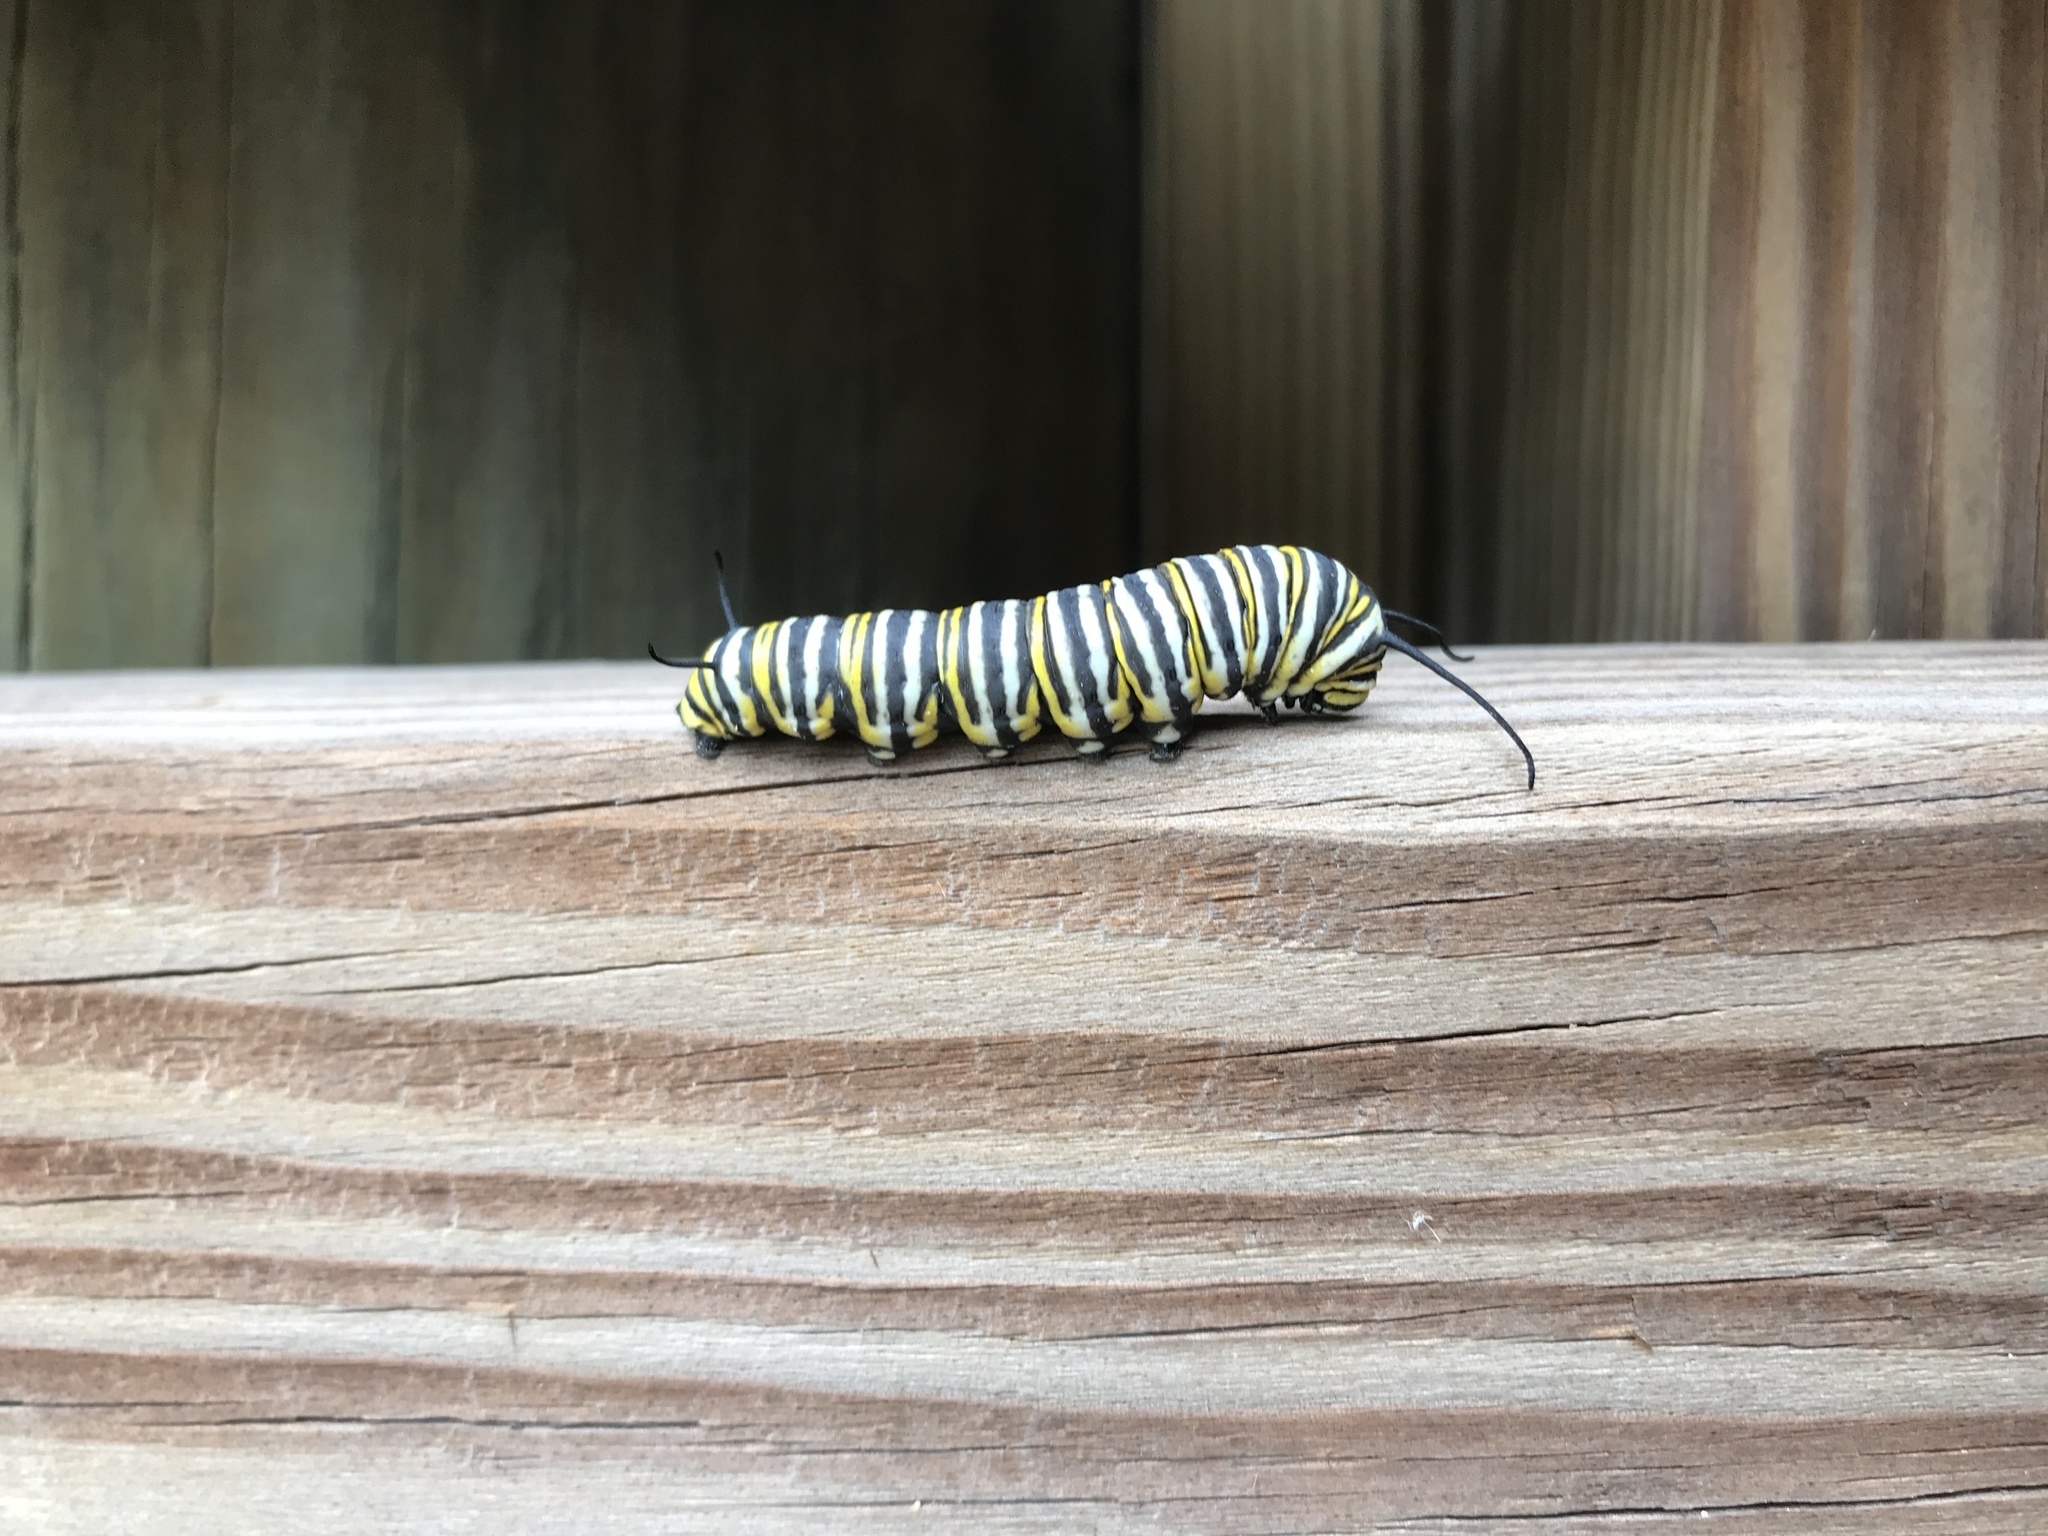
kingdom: Animalia
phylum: Arthropoda
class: Insecta
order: Lepidoptera
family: Nymphalidae
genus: Danaus
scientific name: Danaus plexippus
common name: Monarch
